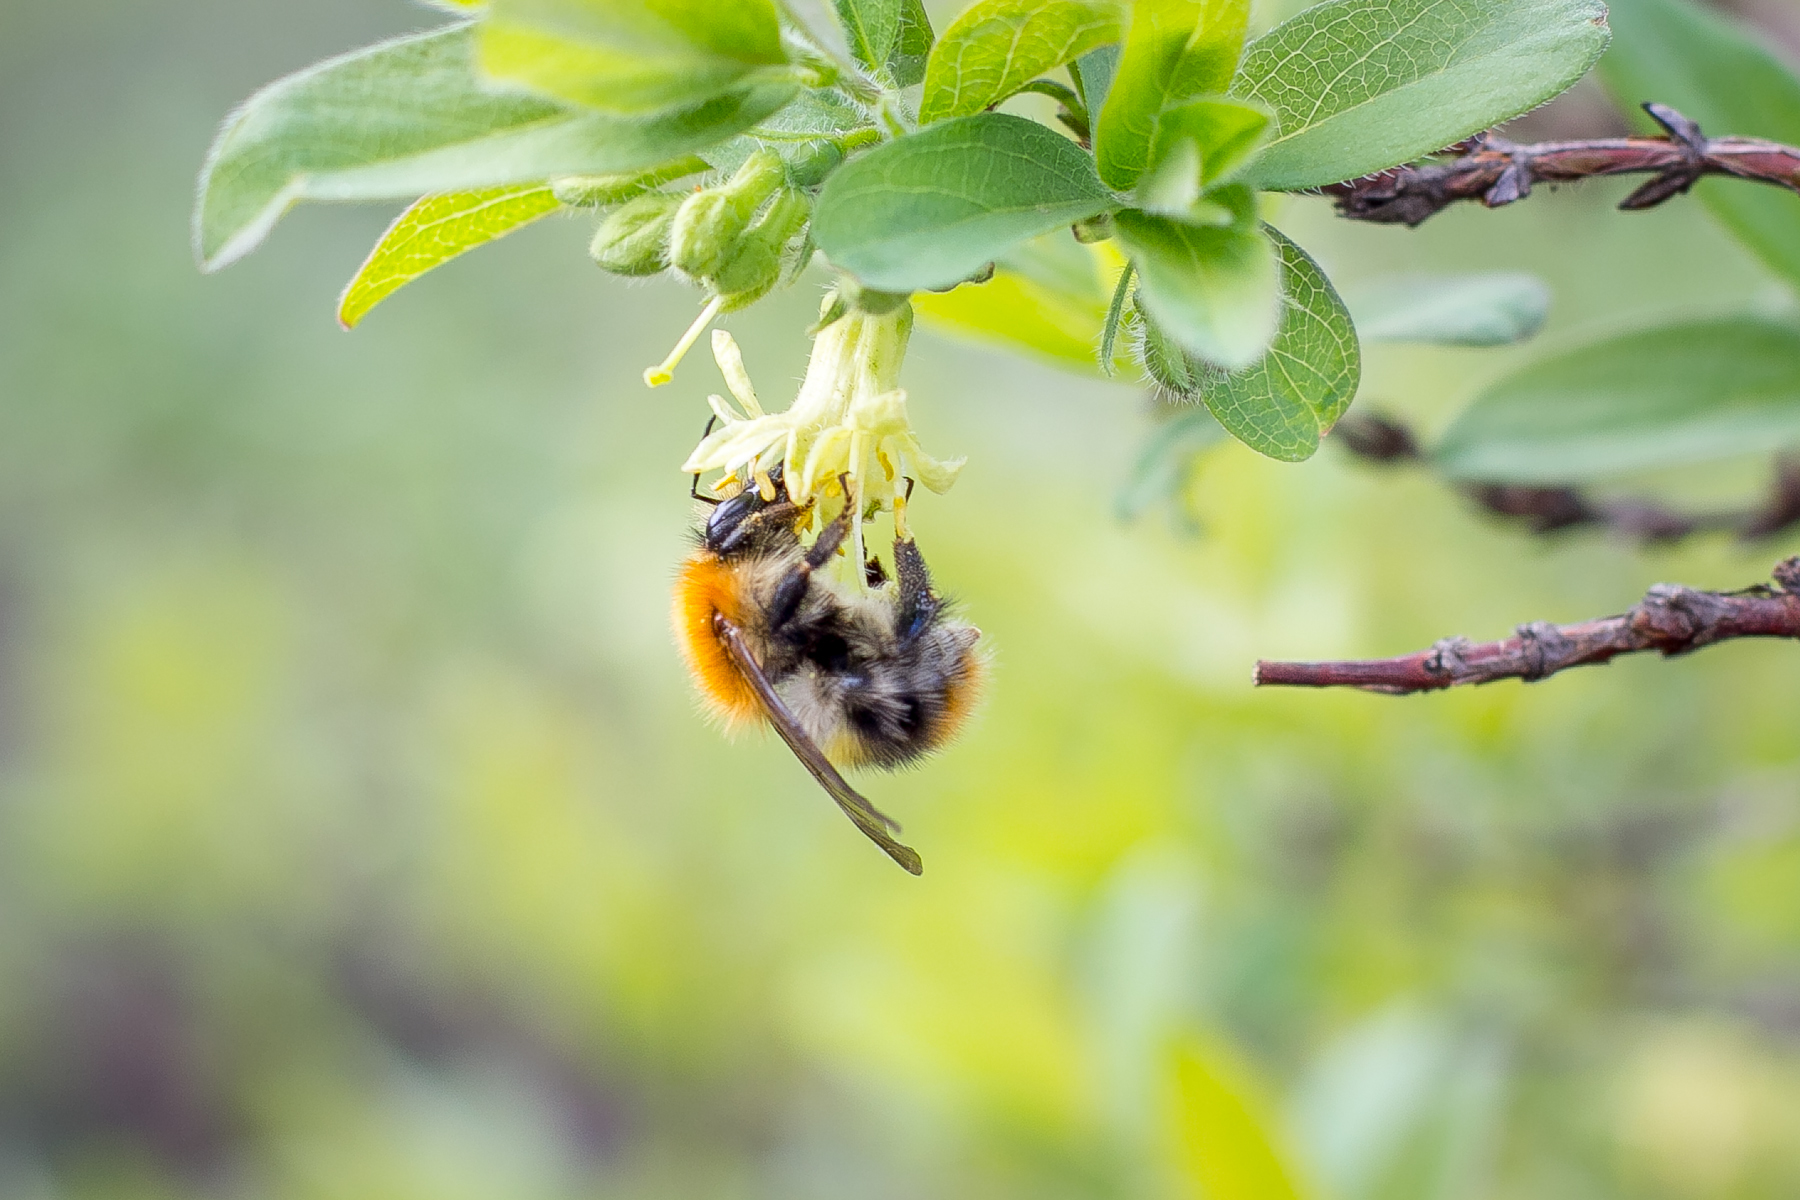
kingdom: Animalia
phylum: Arthropoda
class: Insecta
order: Hymenoptera
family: Apidae
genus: Bombus
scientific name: Bombus pascuorum
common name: Common carder bee
